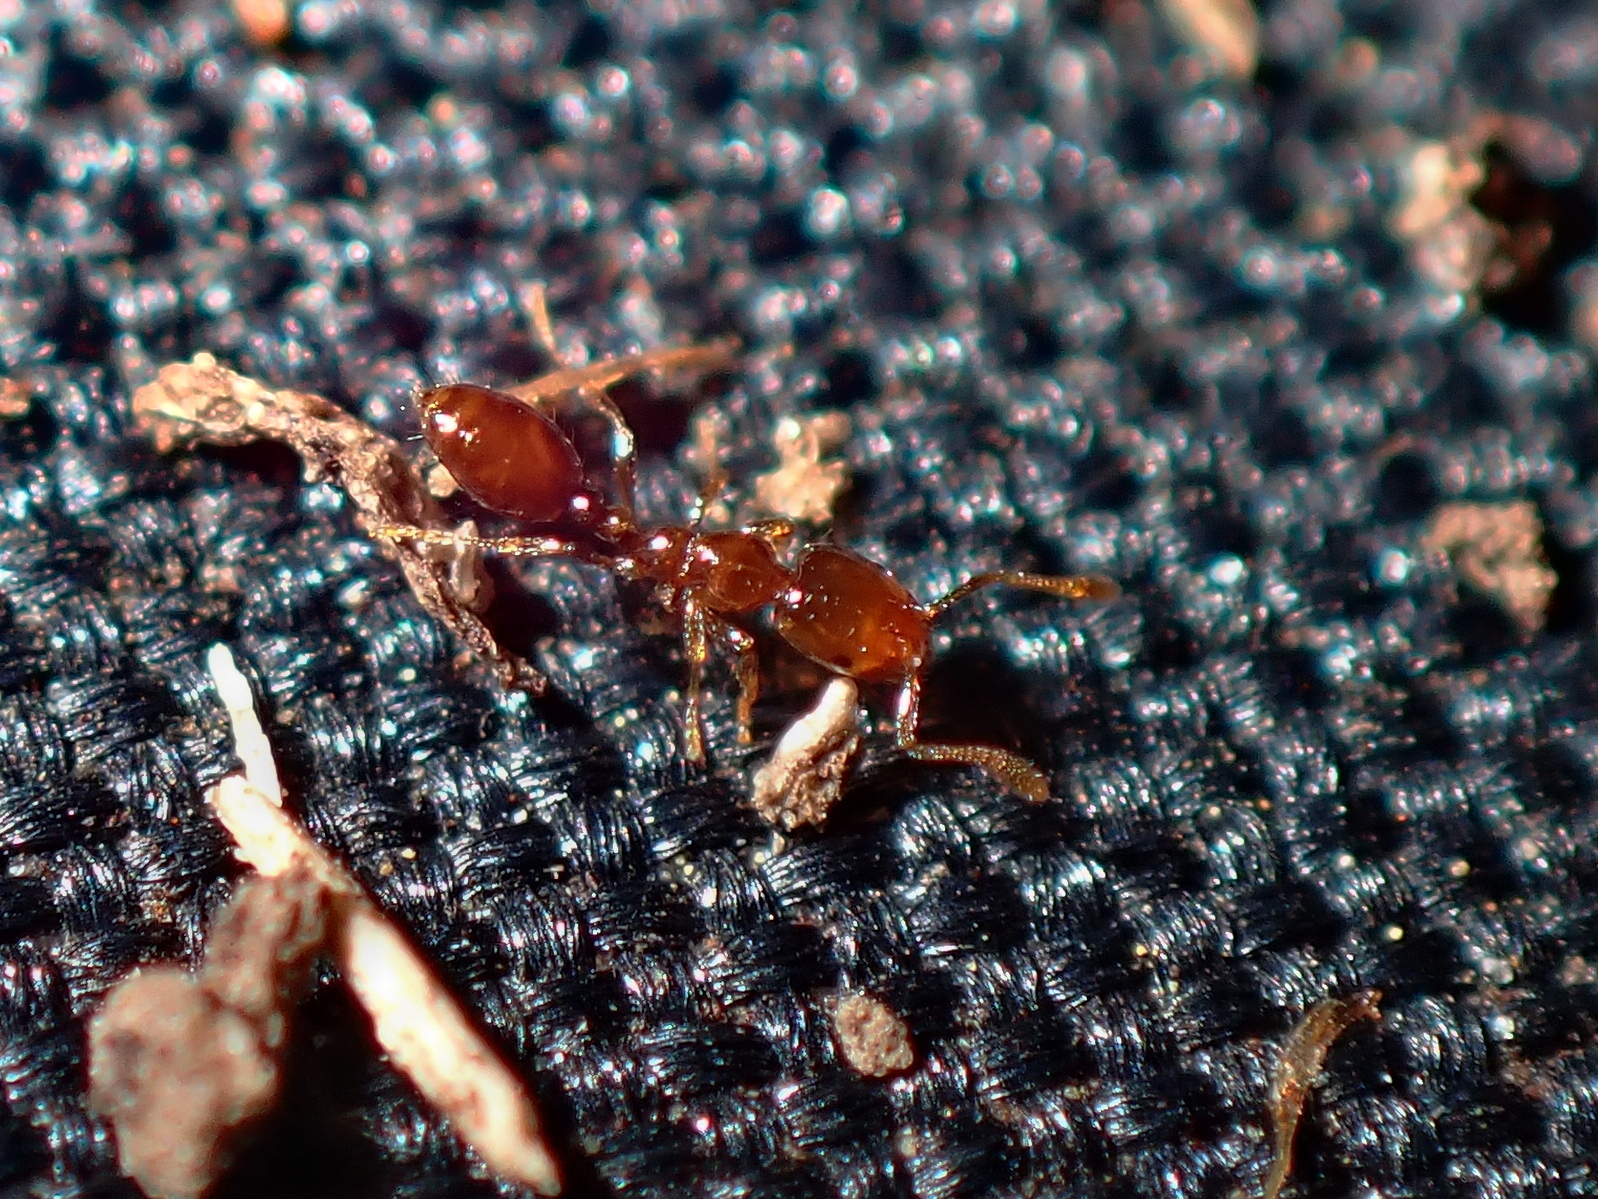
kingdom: Animalia
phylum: Arthropoda
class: Insecta
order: Hymenoptera
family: Formicidae
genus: Monomorium
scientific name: Monomorium fieldi
